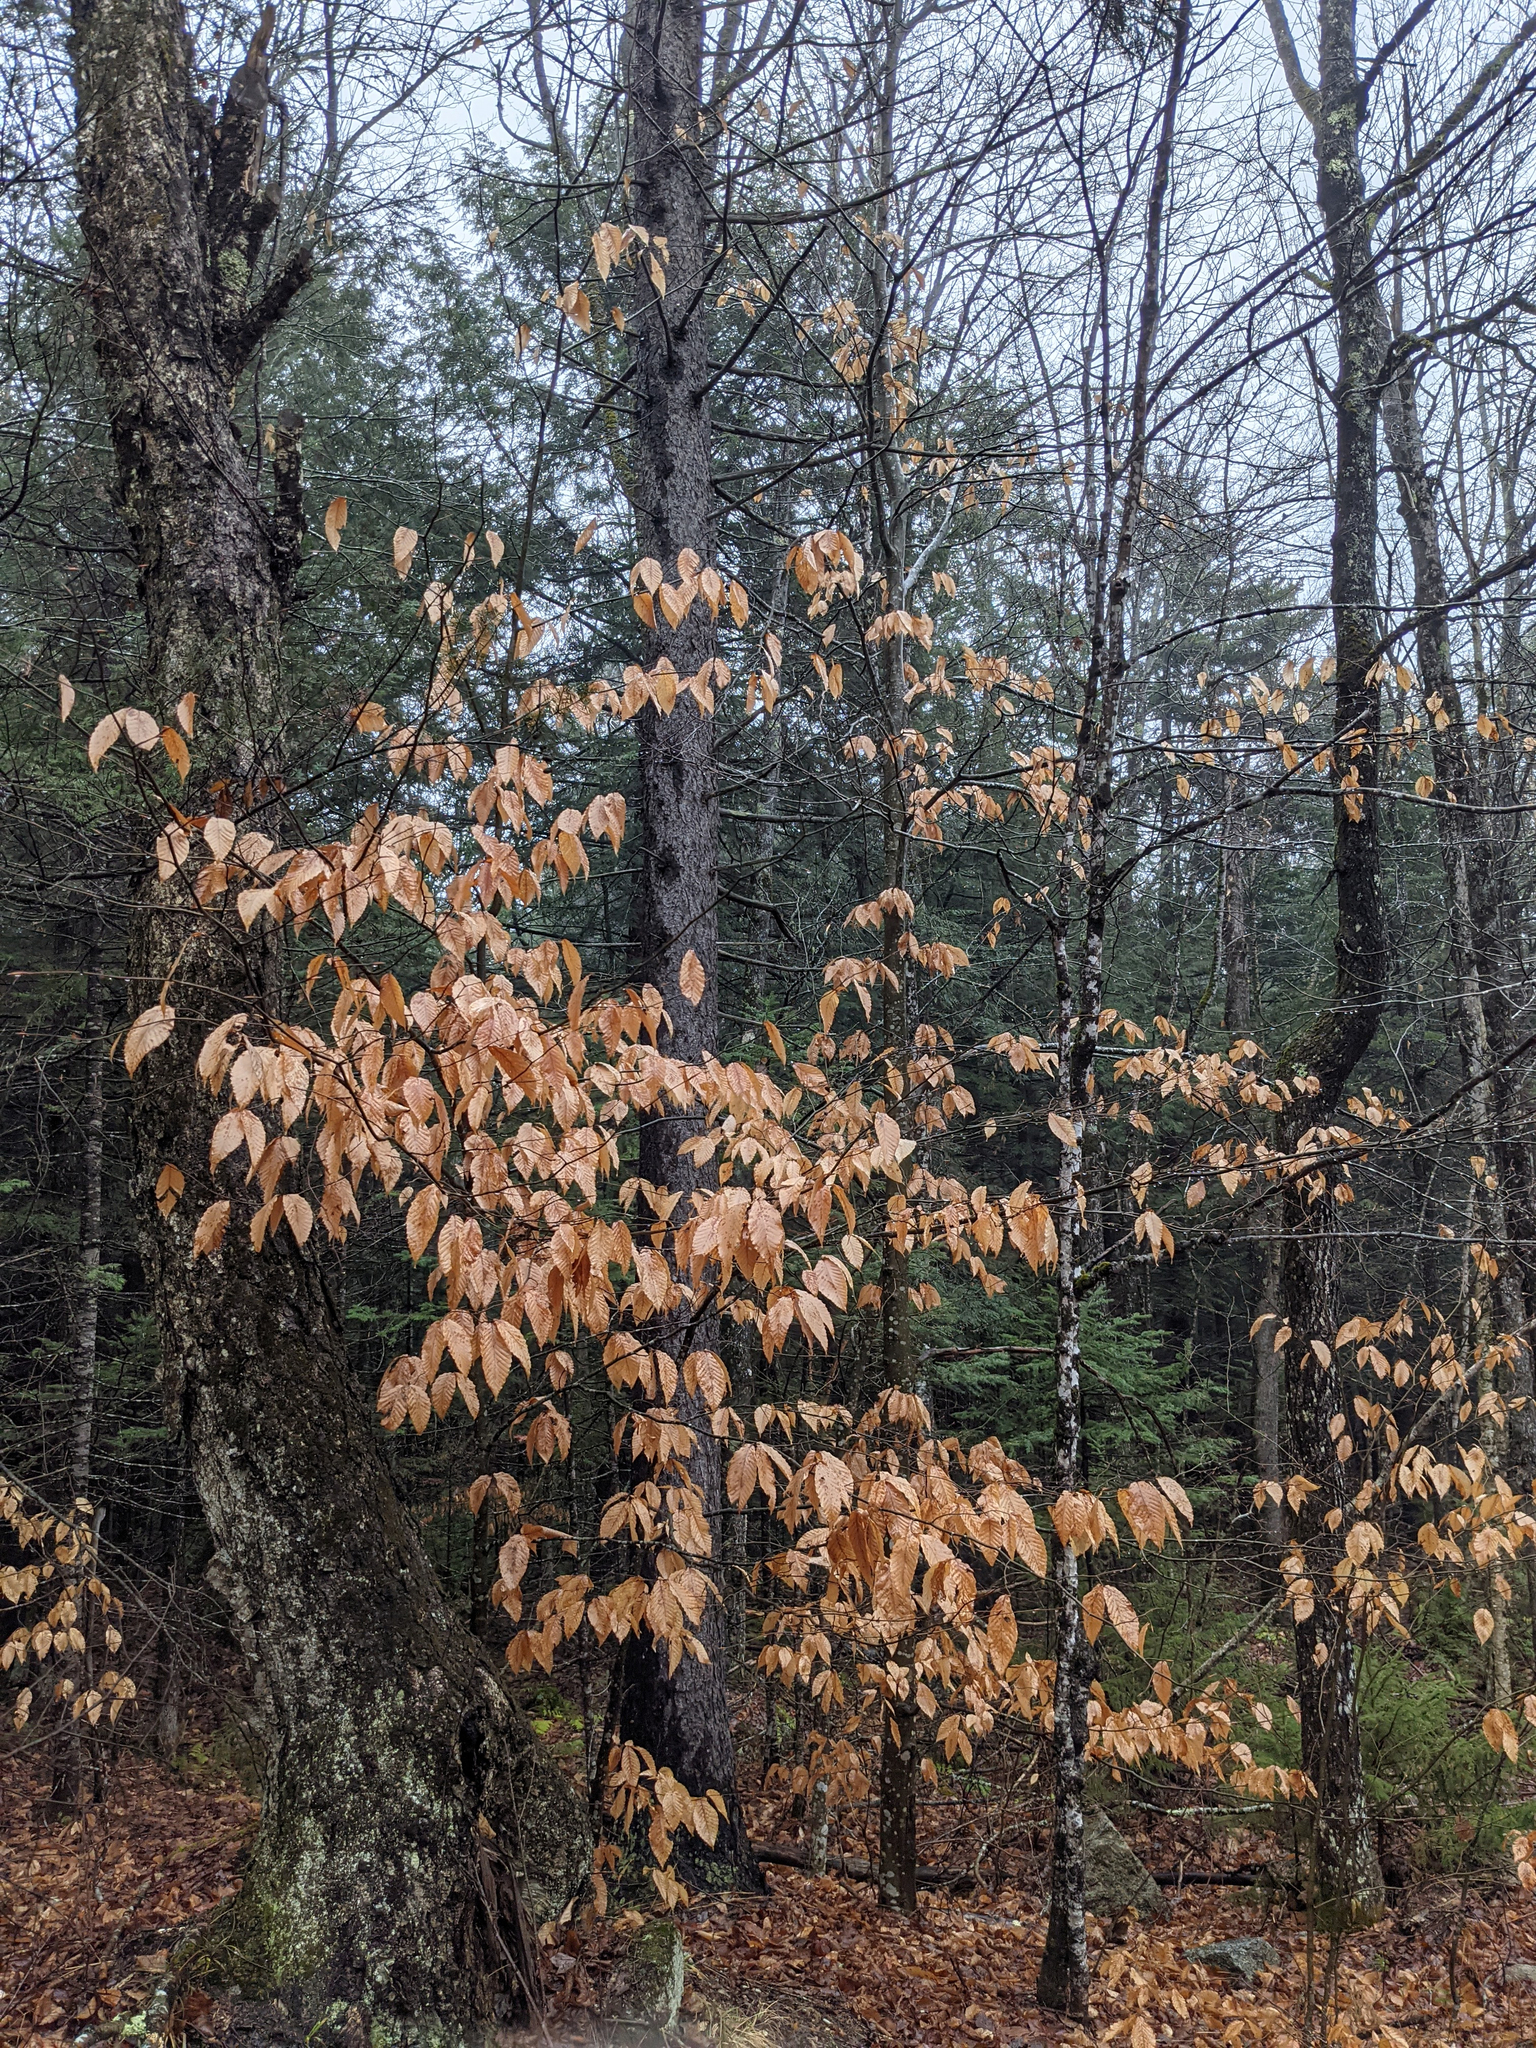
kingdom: Plantae
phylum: Tracheophyta
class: Magnoliopsida
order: Fagales
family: Fagaceae
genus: Fagus
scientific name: Fagus grandifolia
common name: American beech
